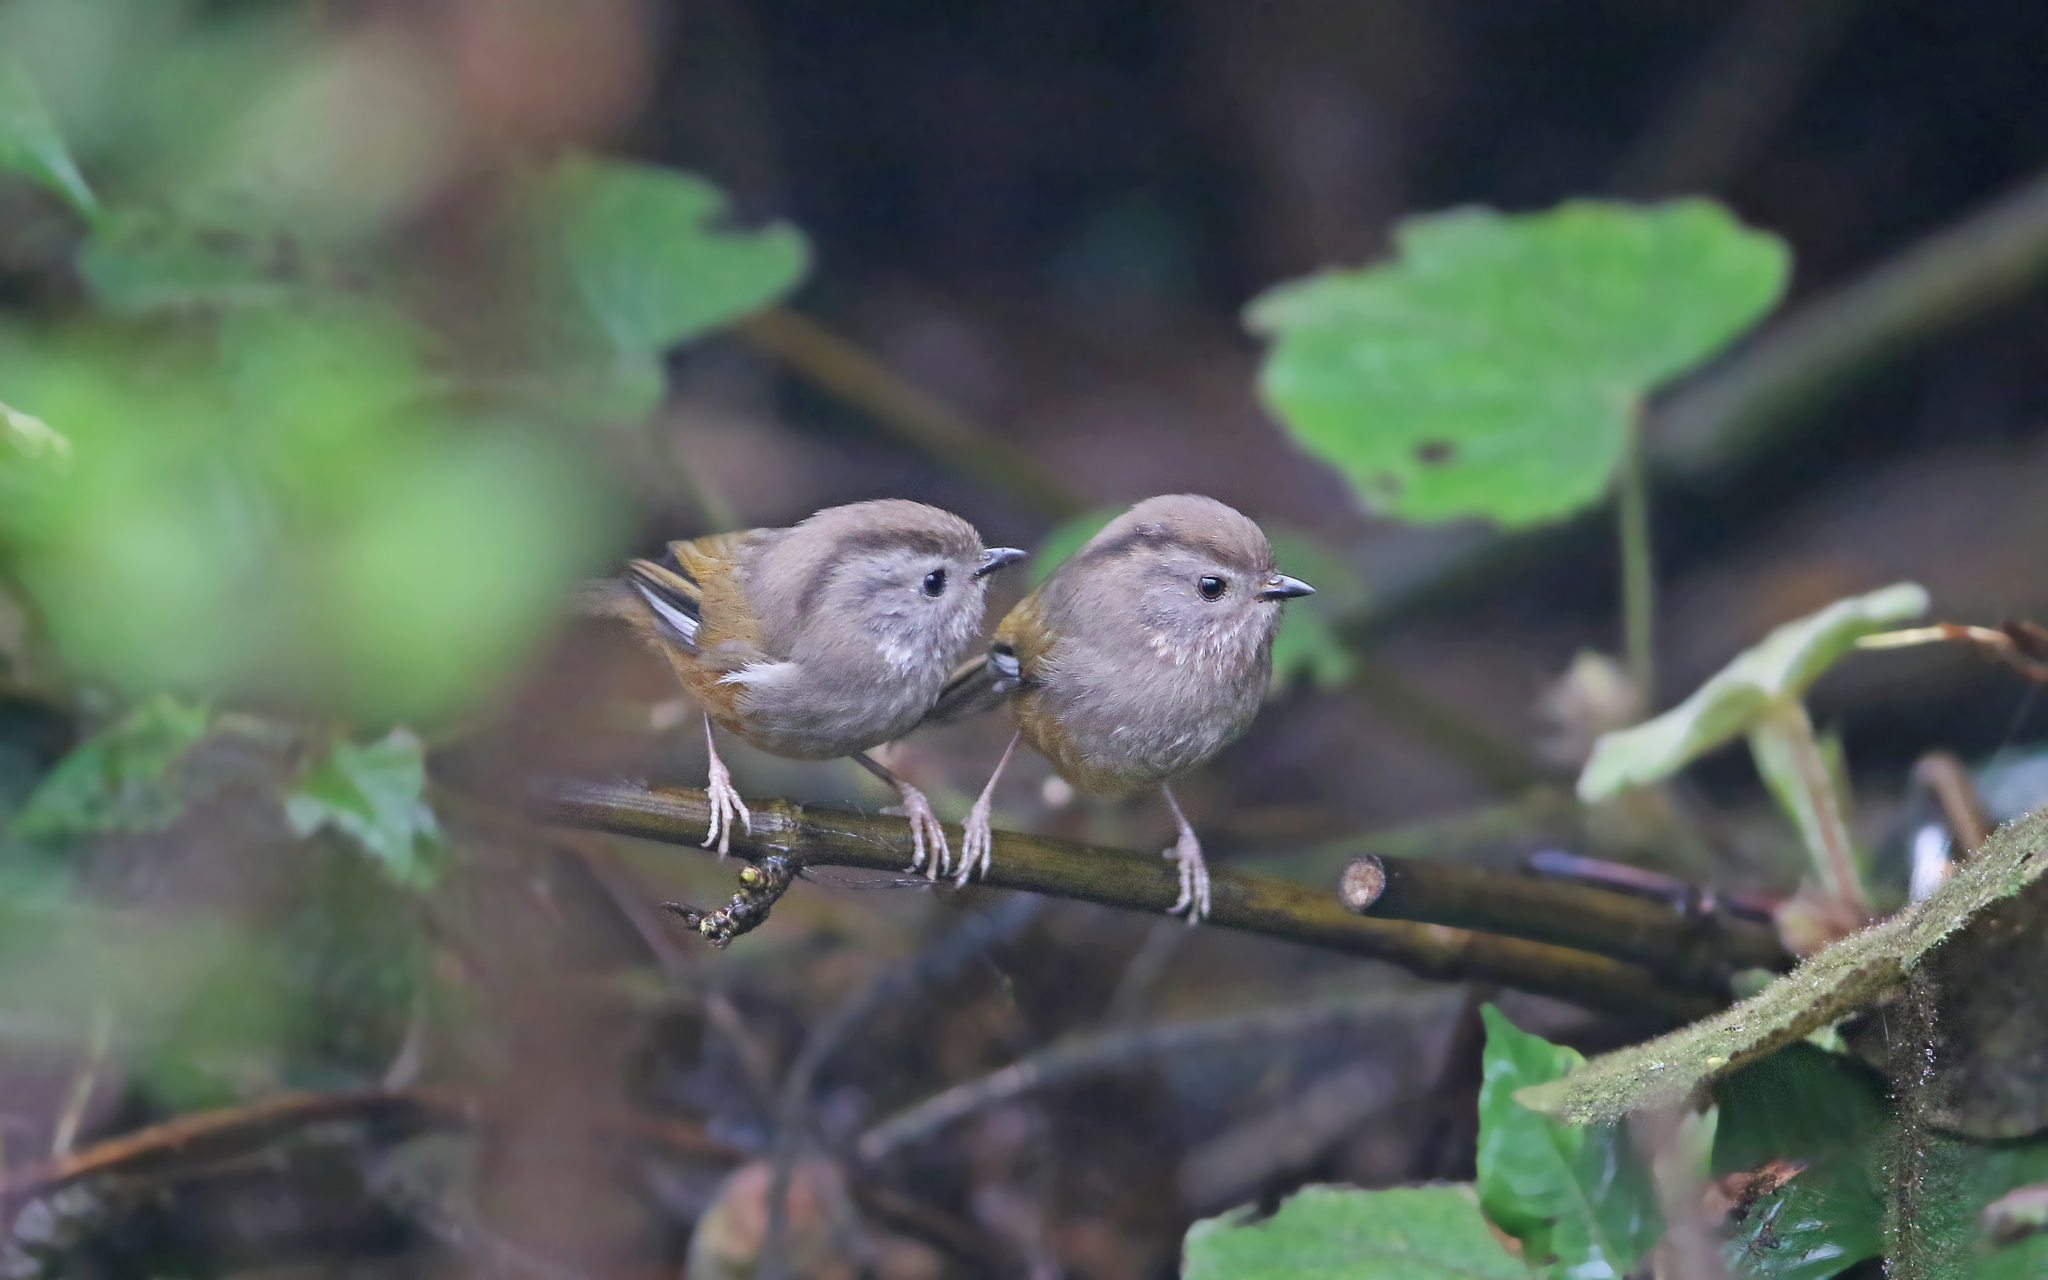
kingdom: Animalia
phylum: Chordata
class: Aves
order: Passeriformes
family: Sylviidae
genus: Fulvetta
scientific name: Fulvetta manipurensis
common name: Manipur fulvetta
